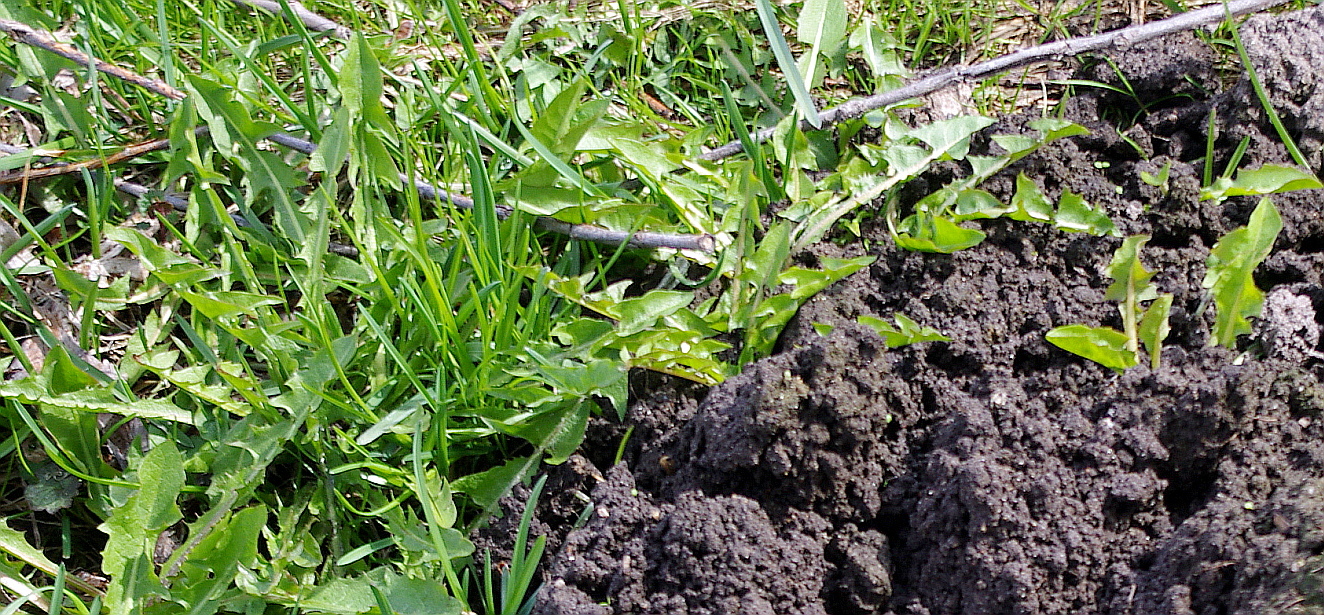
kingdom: Plantae
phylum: Tracheophyta
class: Magnoliopsida
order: Asterales
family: Asteraceae
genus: Taraxacum
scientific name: Taraxacum officinale
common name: Common dandelion
